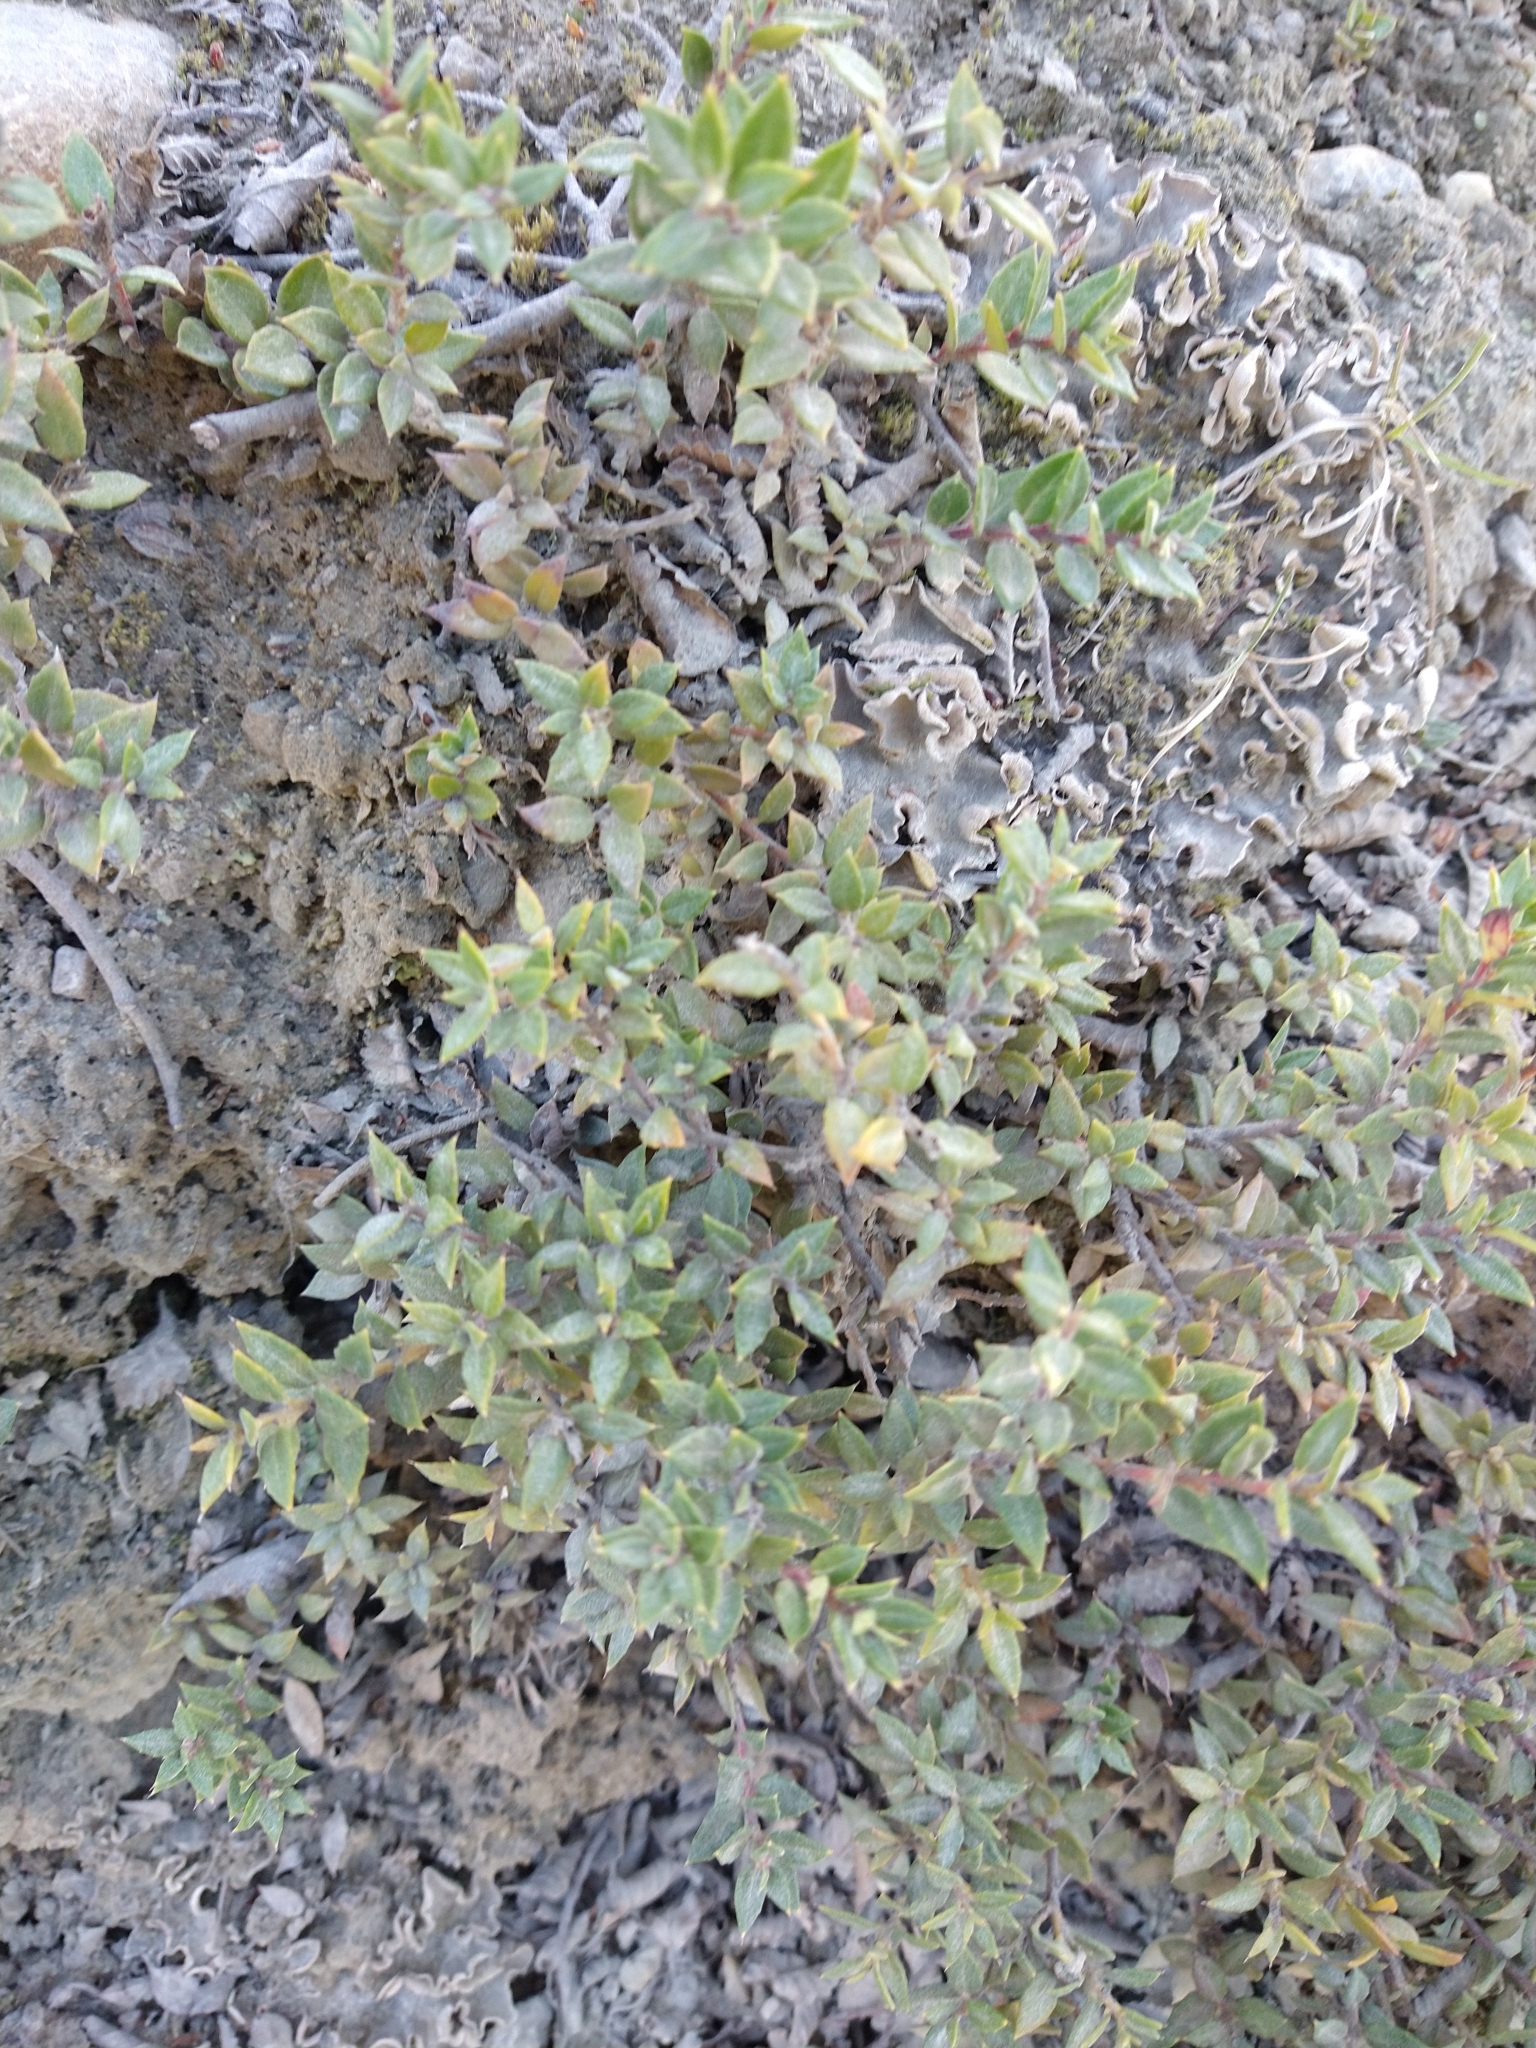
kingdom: Plantae
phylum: Tracheophyta
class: Magnoliopsida
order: Ericales
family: Ericaceae
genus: Gaultheria
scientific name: Gaultheria mucronata
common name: Prickly heath
